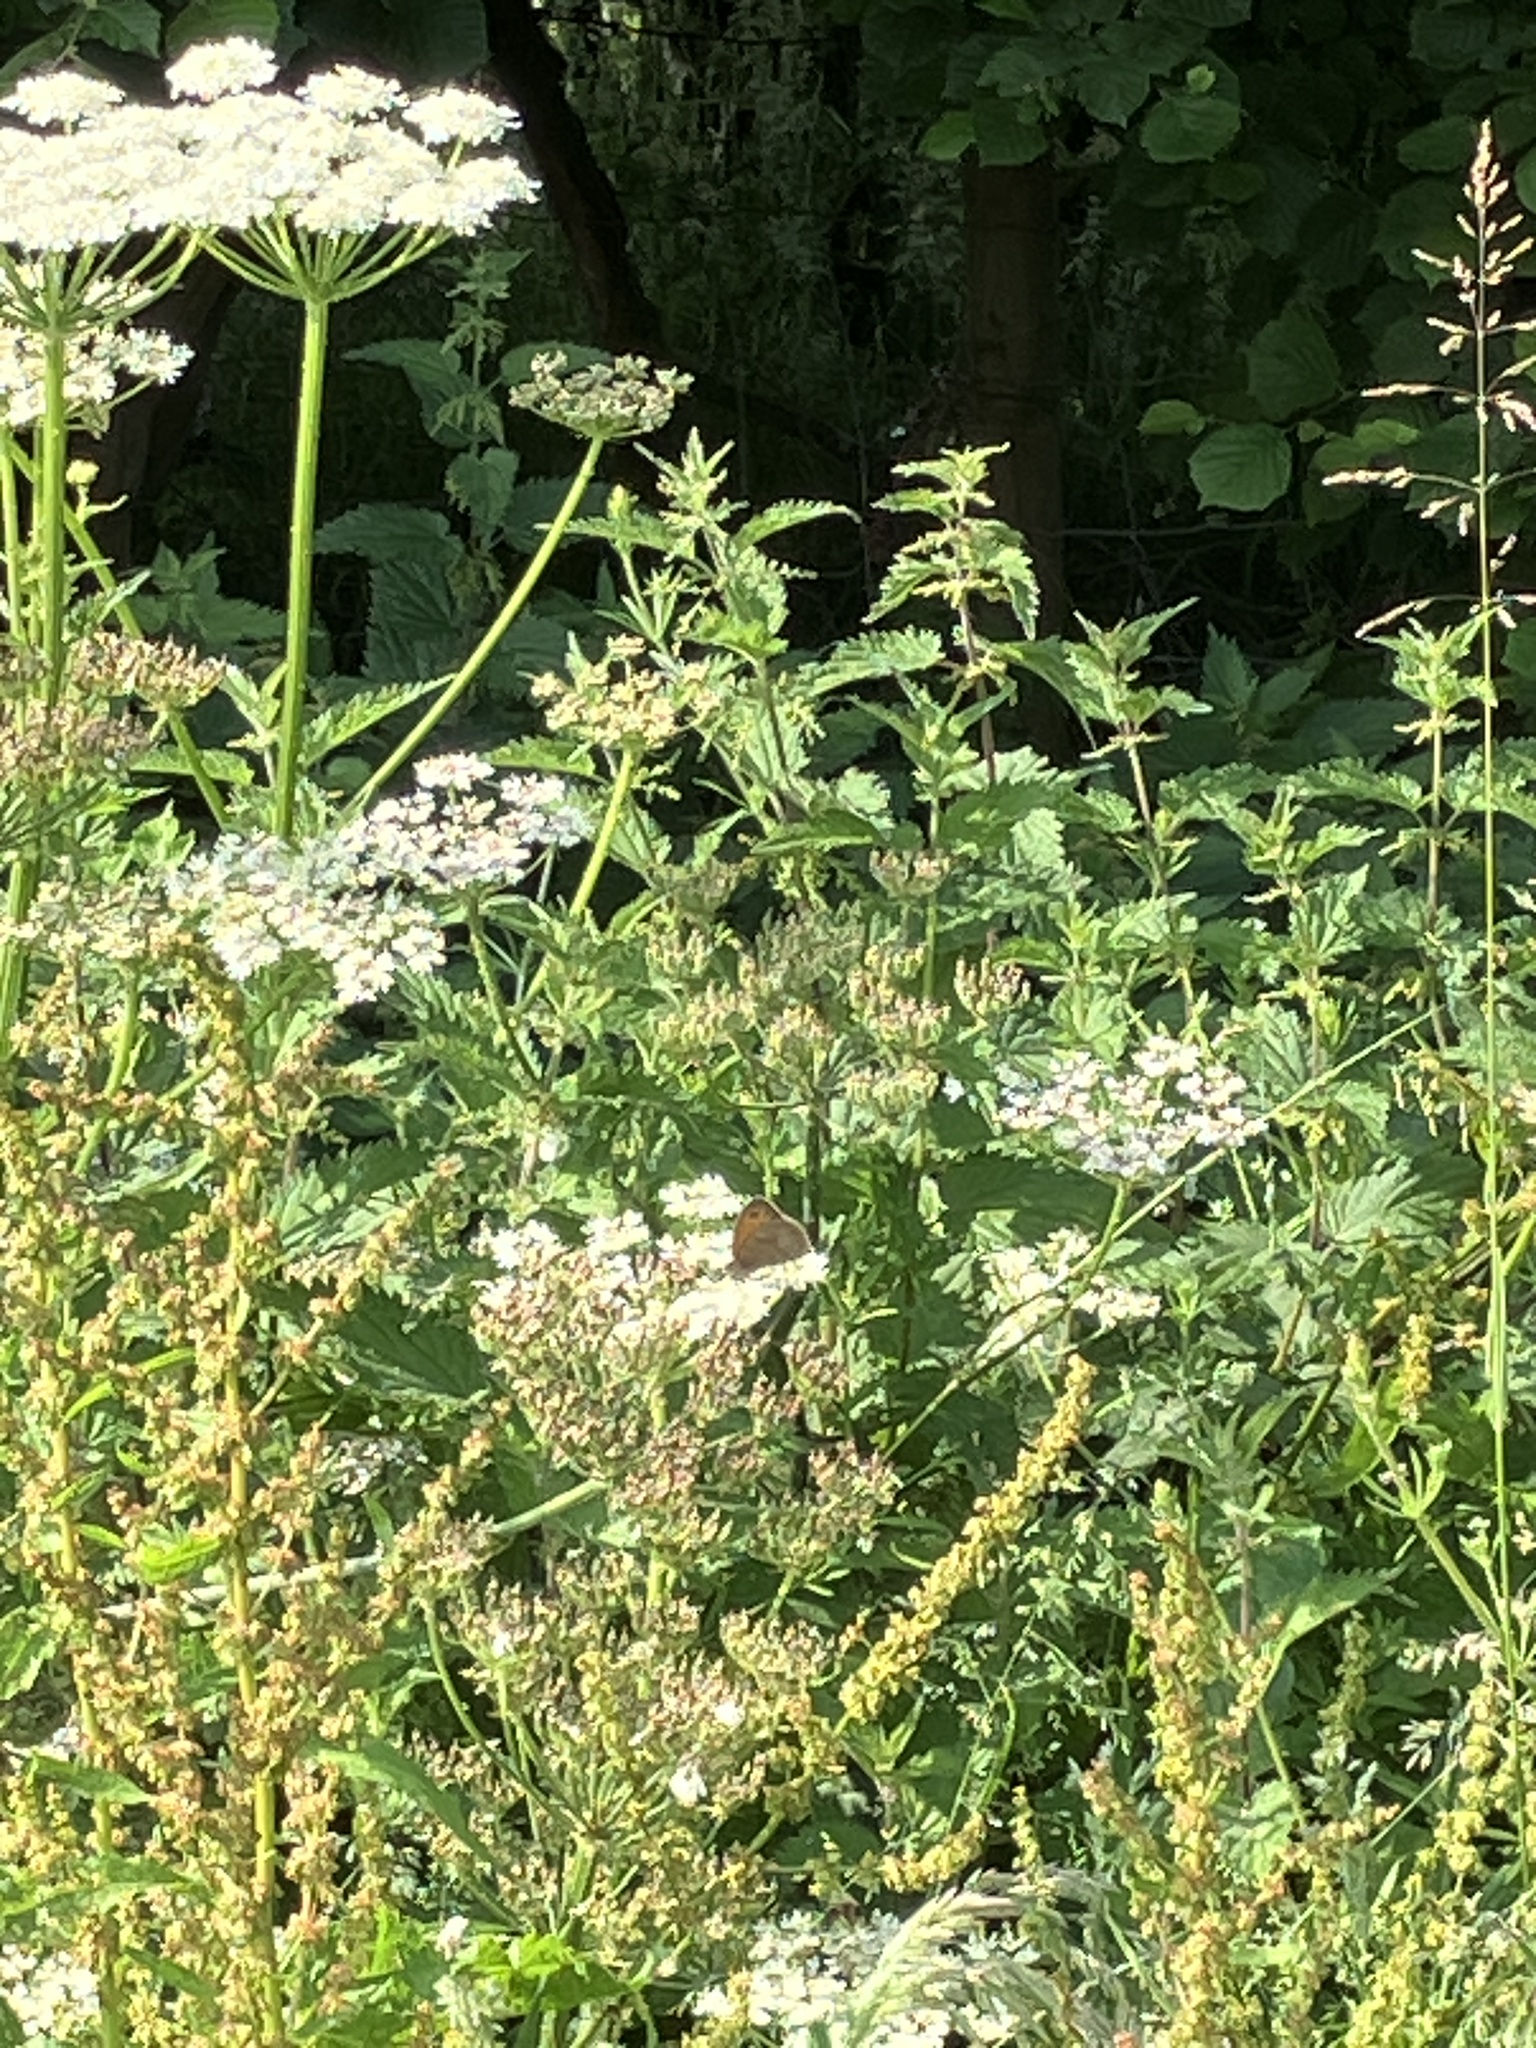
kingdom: Animalia
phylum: Arthropoda
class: Insecta
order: Lepidoptera
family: Nymphalidae
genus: Maniola
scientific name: Maniola jurtina
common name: Meadow brown
